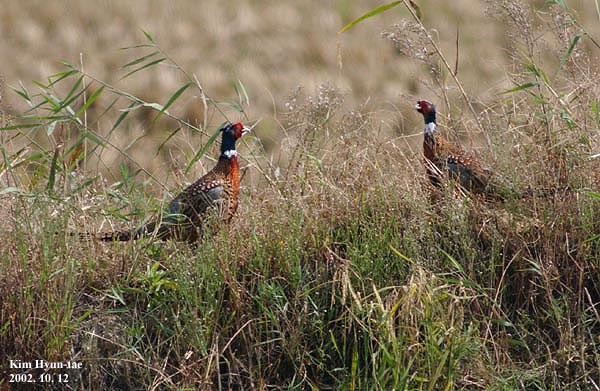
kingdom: Animalia
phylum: Chordata
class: Aves
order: Galliformes
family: Phasianidae
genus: Phasianus
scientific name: Phasianus colchicus
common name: Common pheasant
